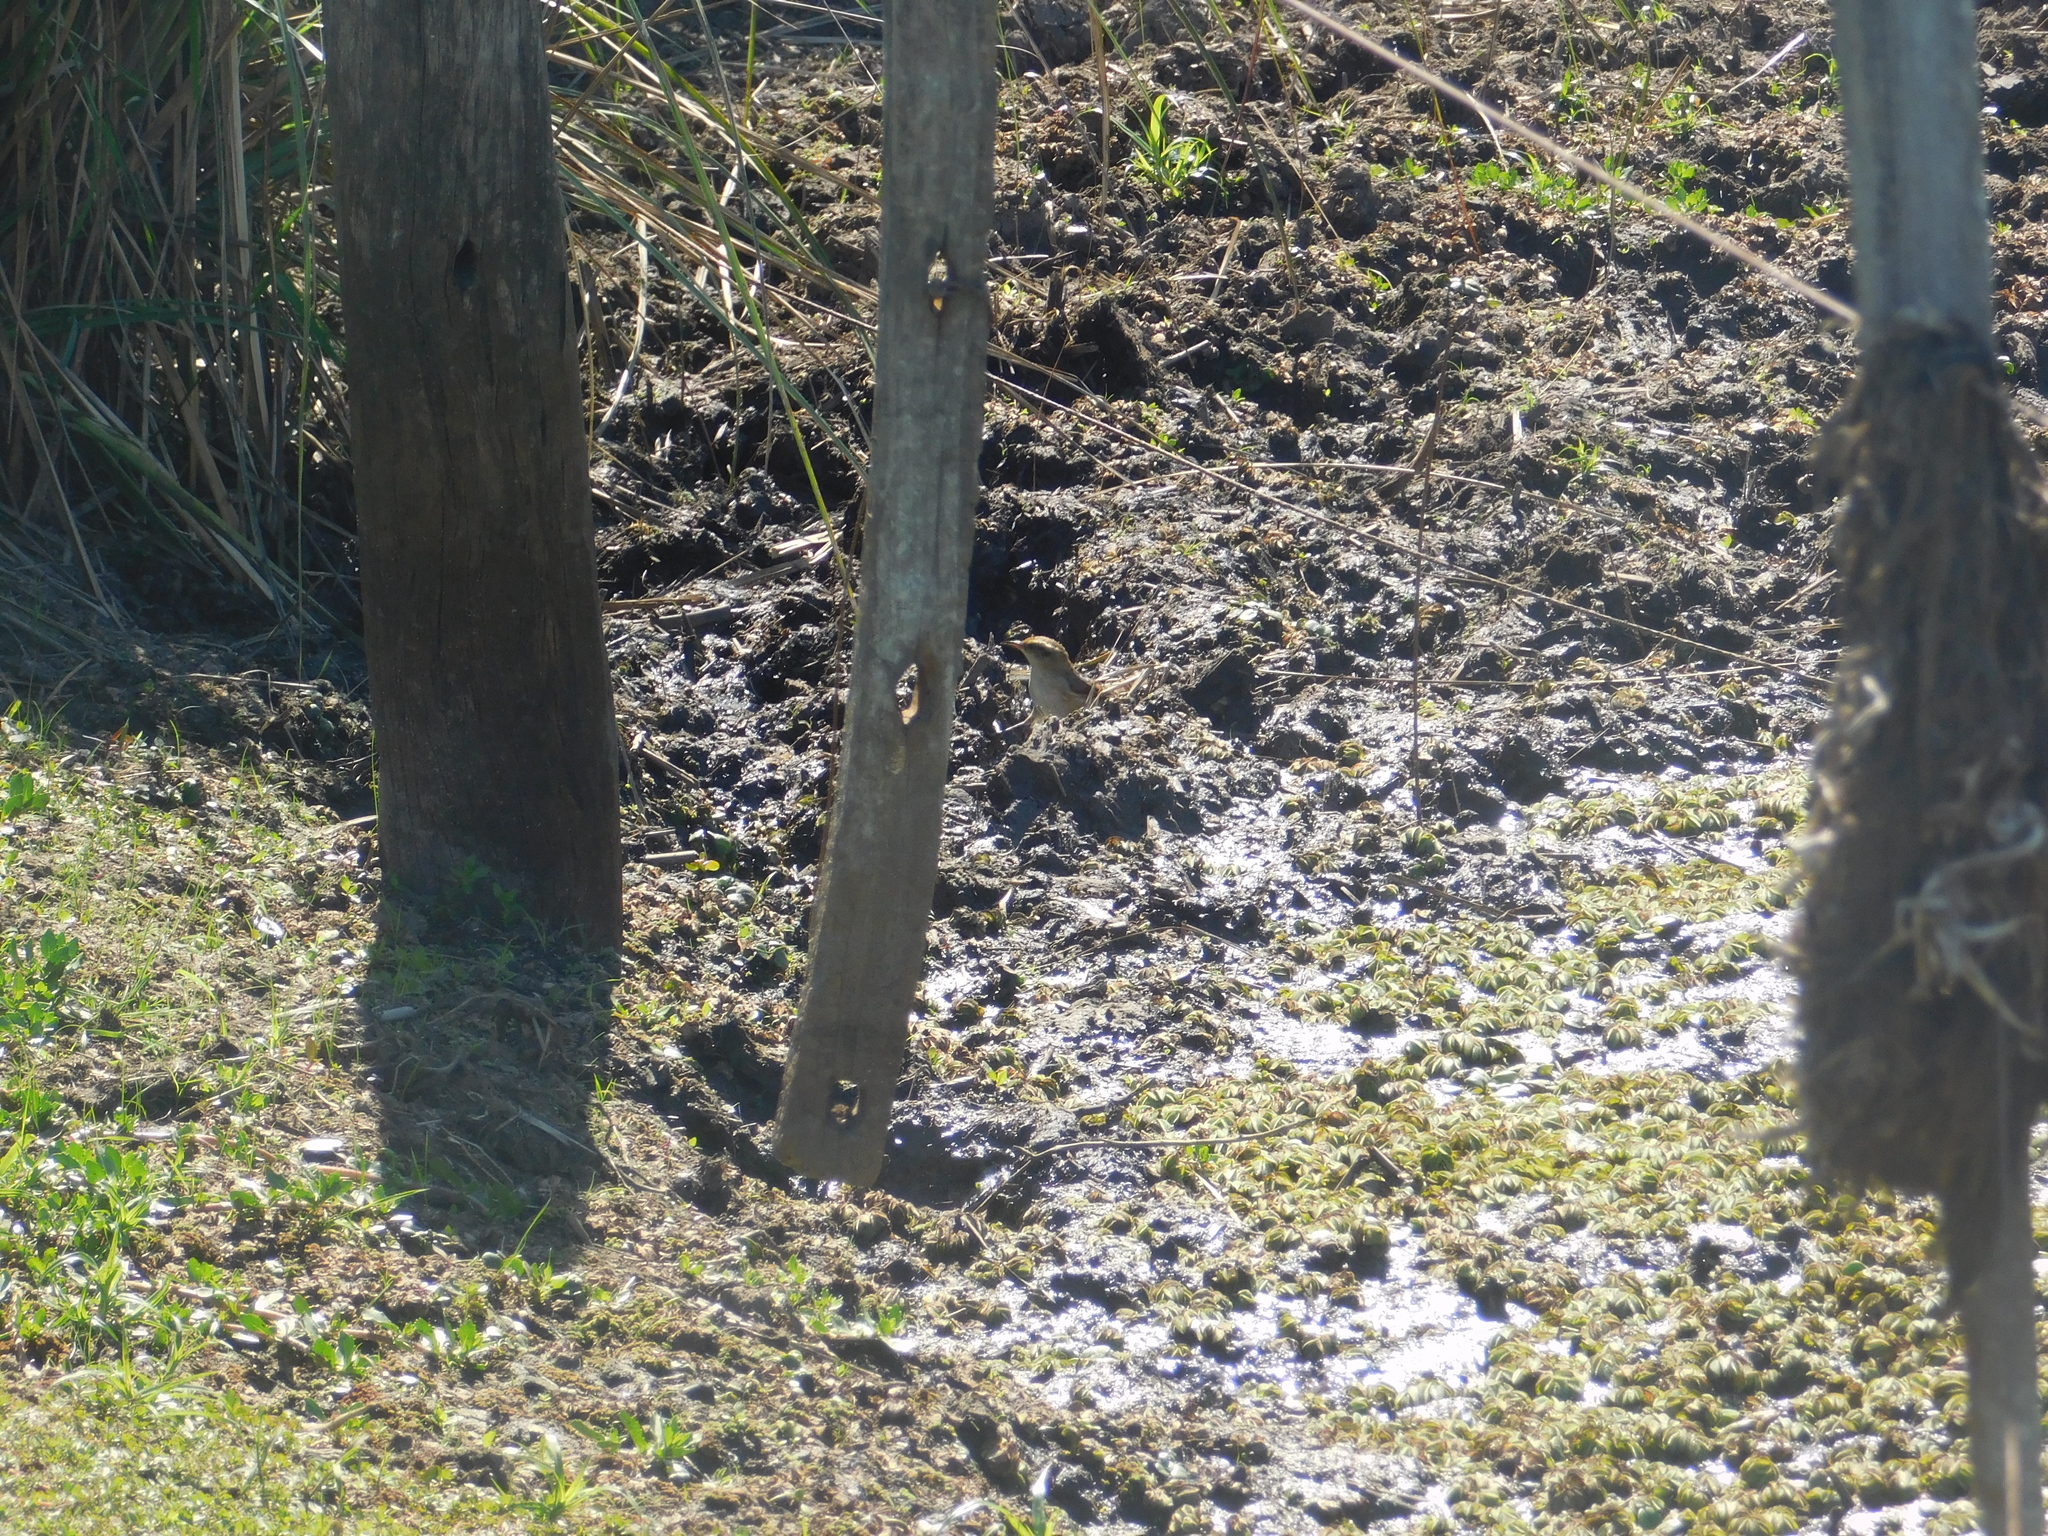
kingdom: Animalia
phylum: Chordata
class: Aves
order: Passeriformes
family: Furnariidae
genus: Phleocryptes
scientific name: Phleocryptes melanops
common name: Wren-like rushbird
